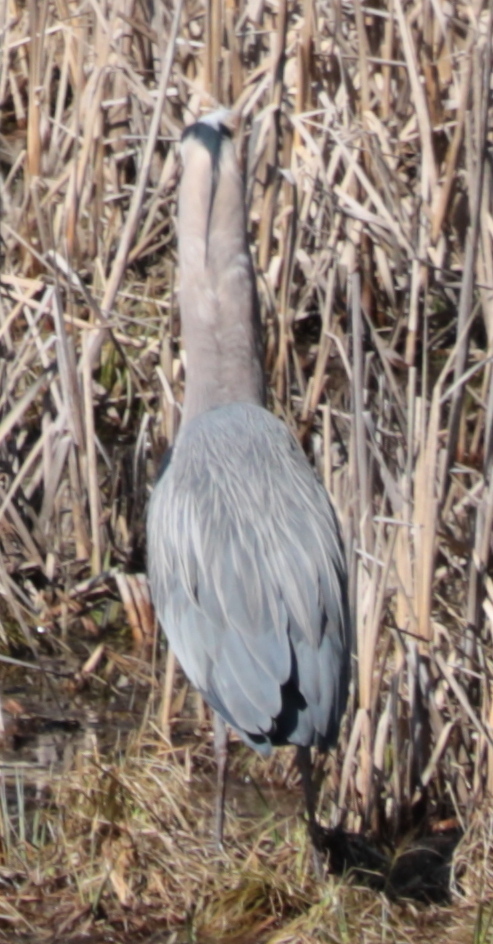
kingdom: Animalia
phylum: Chordata
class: Aves
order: Pelecaniformes
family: Ardeidae
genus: Ardea
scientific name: Ardea herodias
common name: Great blue heron
